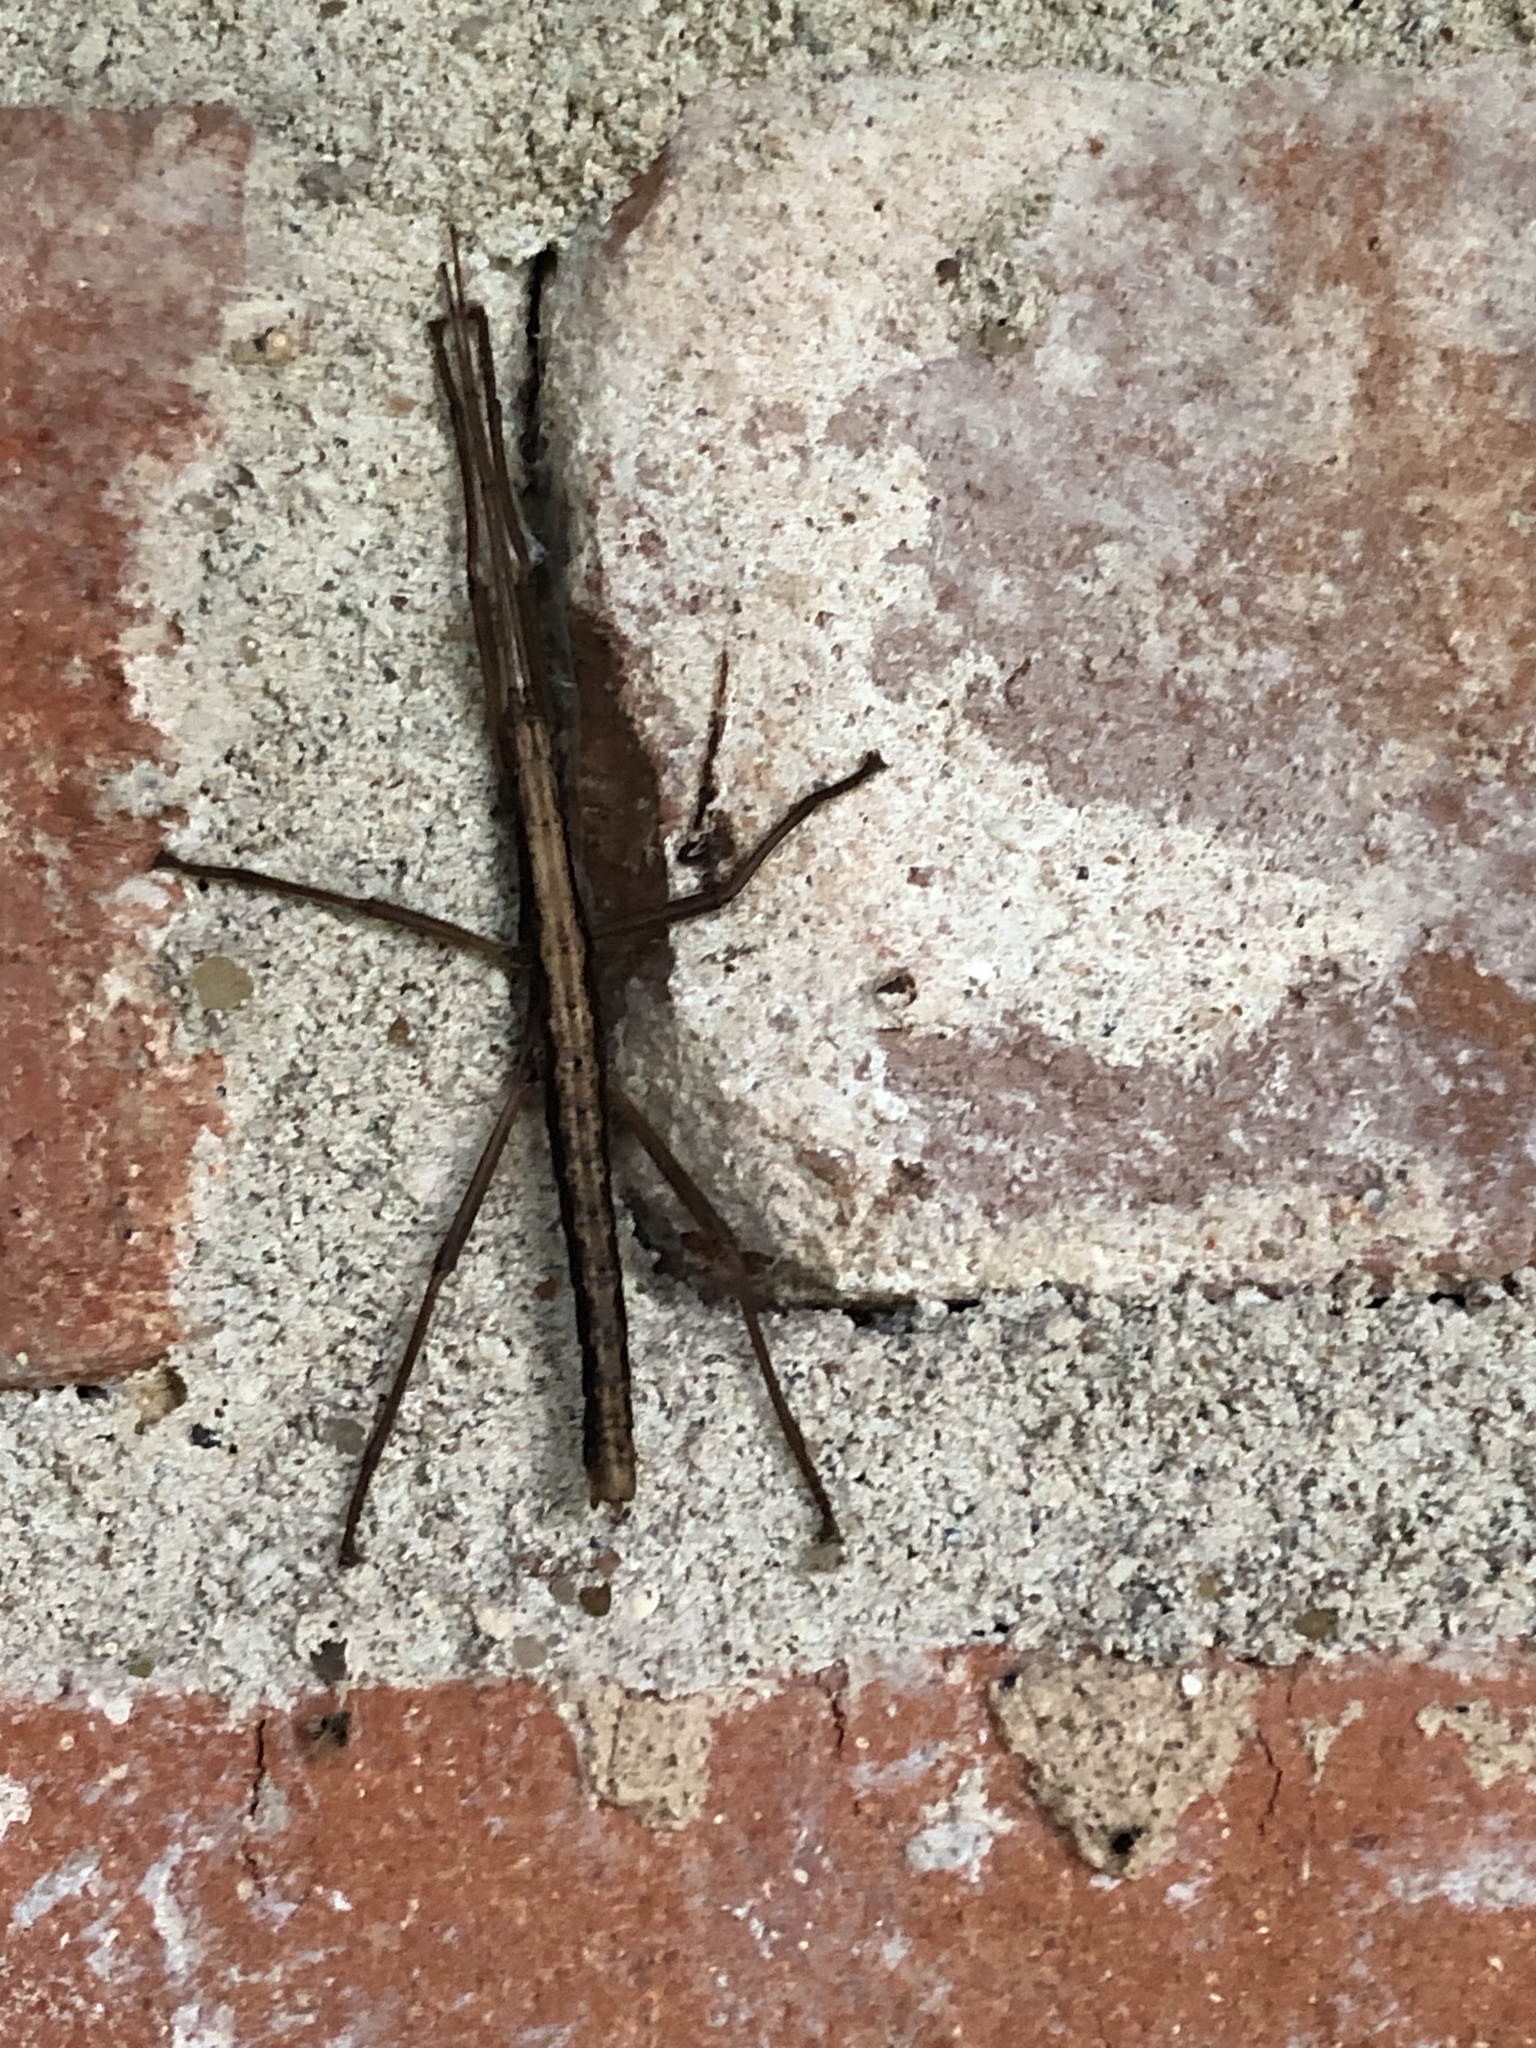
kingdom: Animalia
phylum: Arthropoda
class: Insecta
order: Phasmida
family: Pseudophasmatidae
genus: Anisomorpha
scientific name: Anisomorpha buprestoides
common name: Florida stick insect
